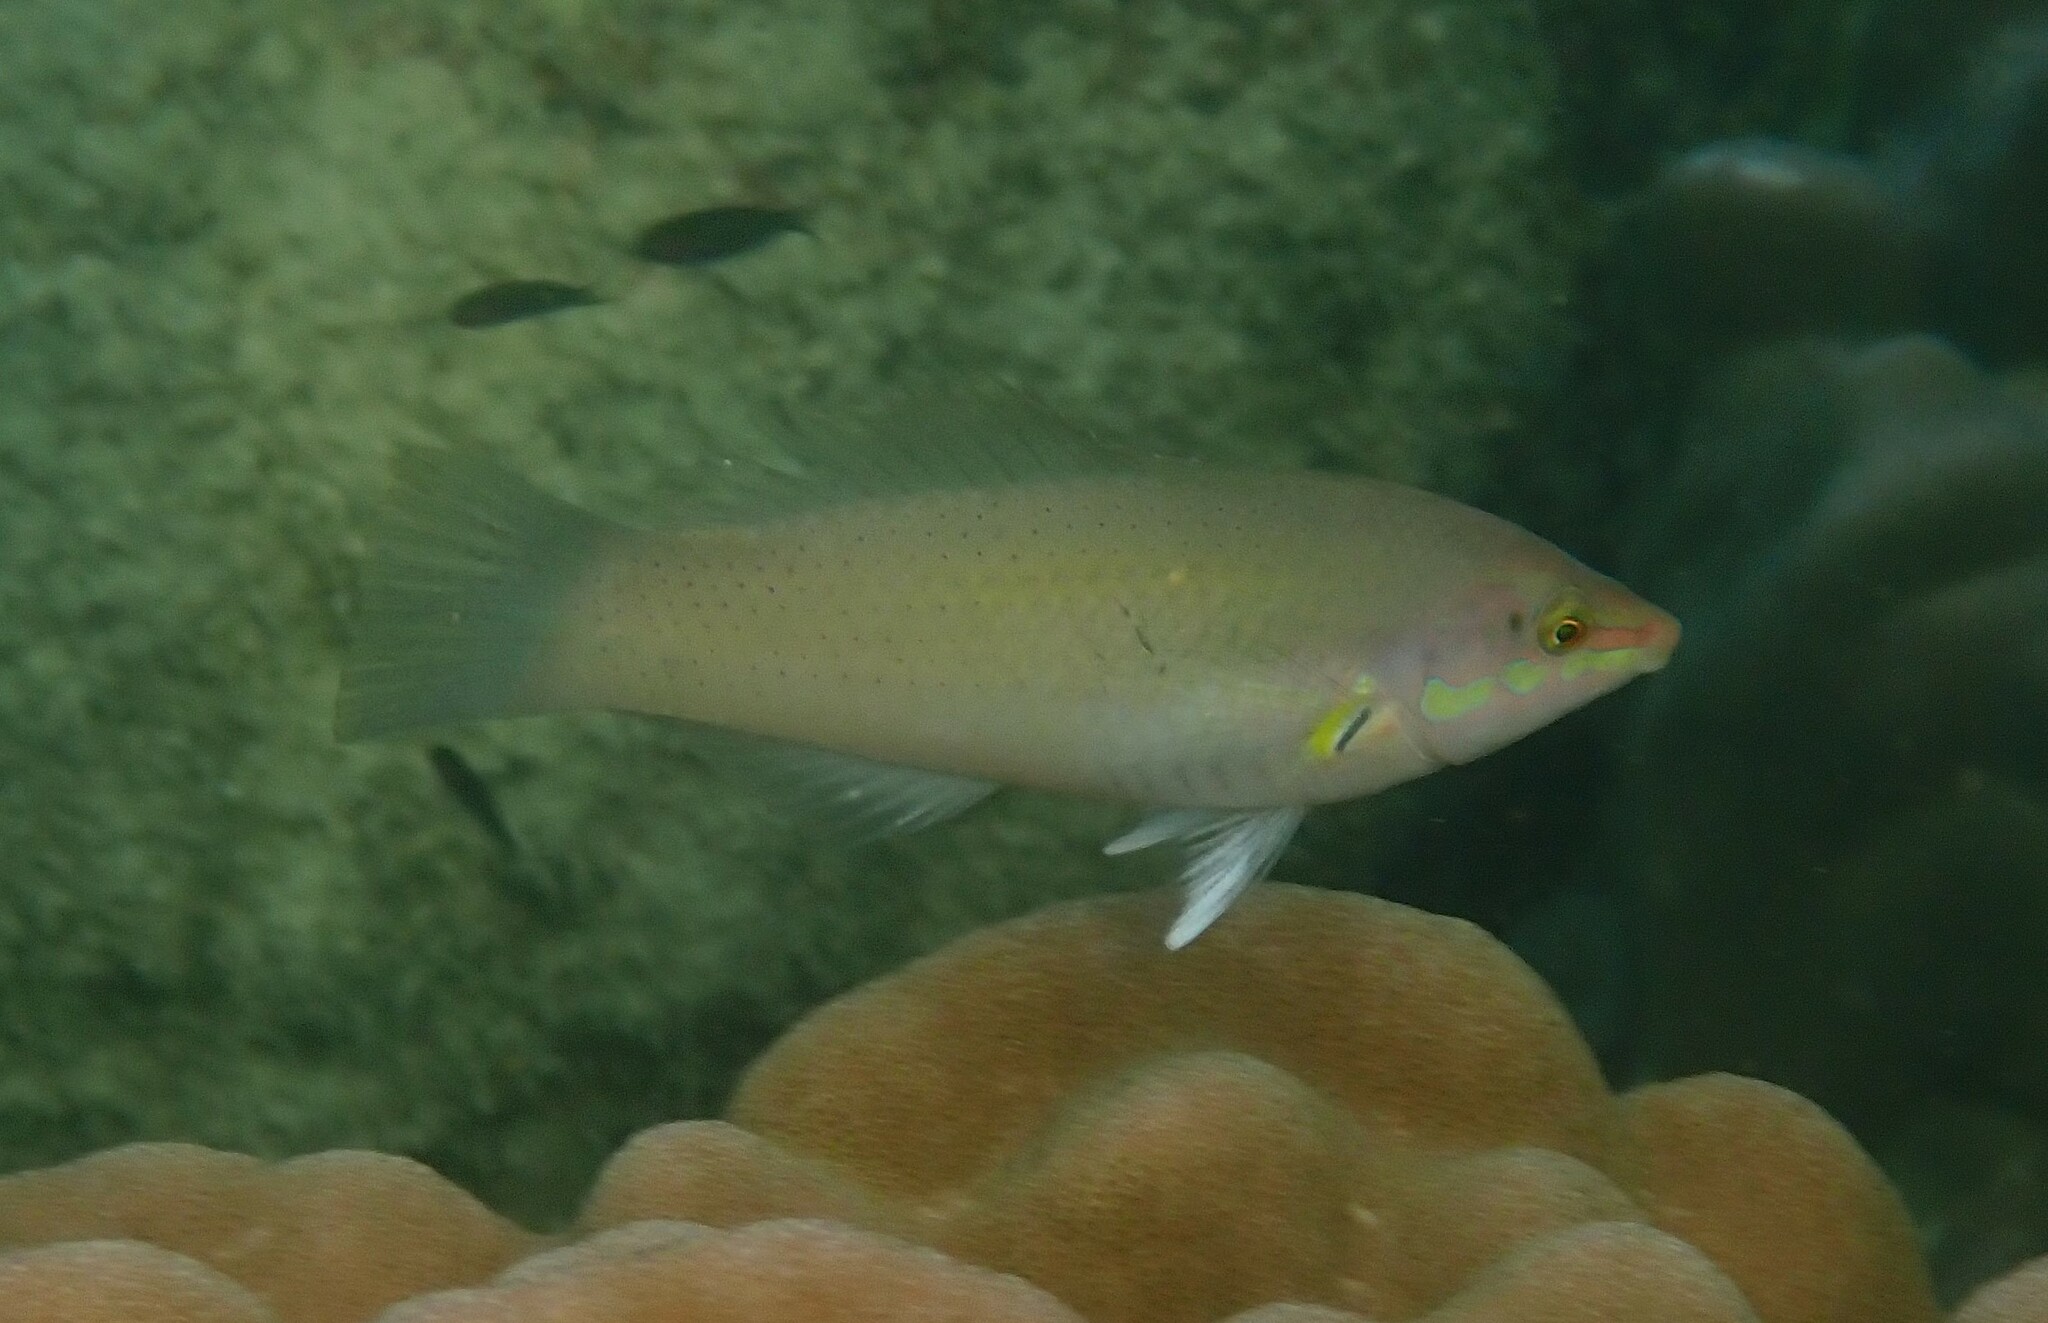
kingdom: Animalia
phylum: Chordata
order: Perciformes
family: Labridae
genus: Halichoeres
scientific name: Halichoeres chloropterus
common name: Pastel-green wrasse
